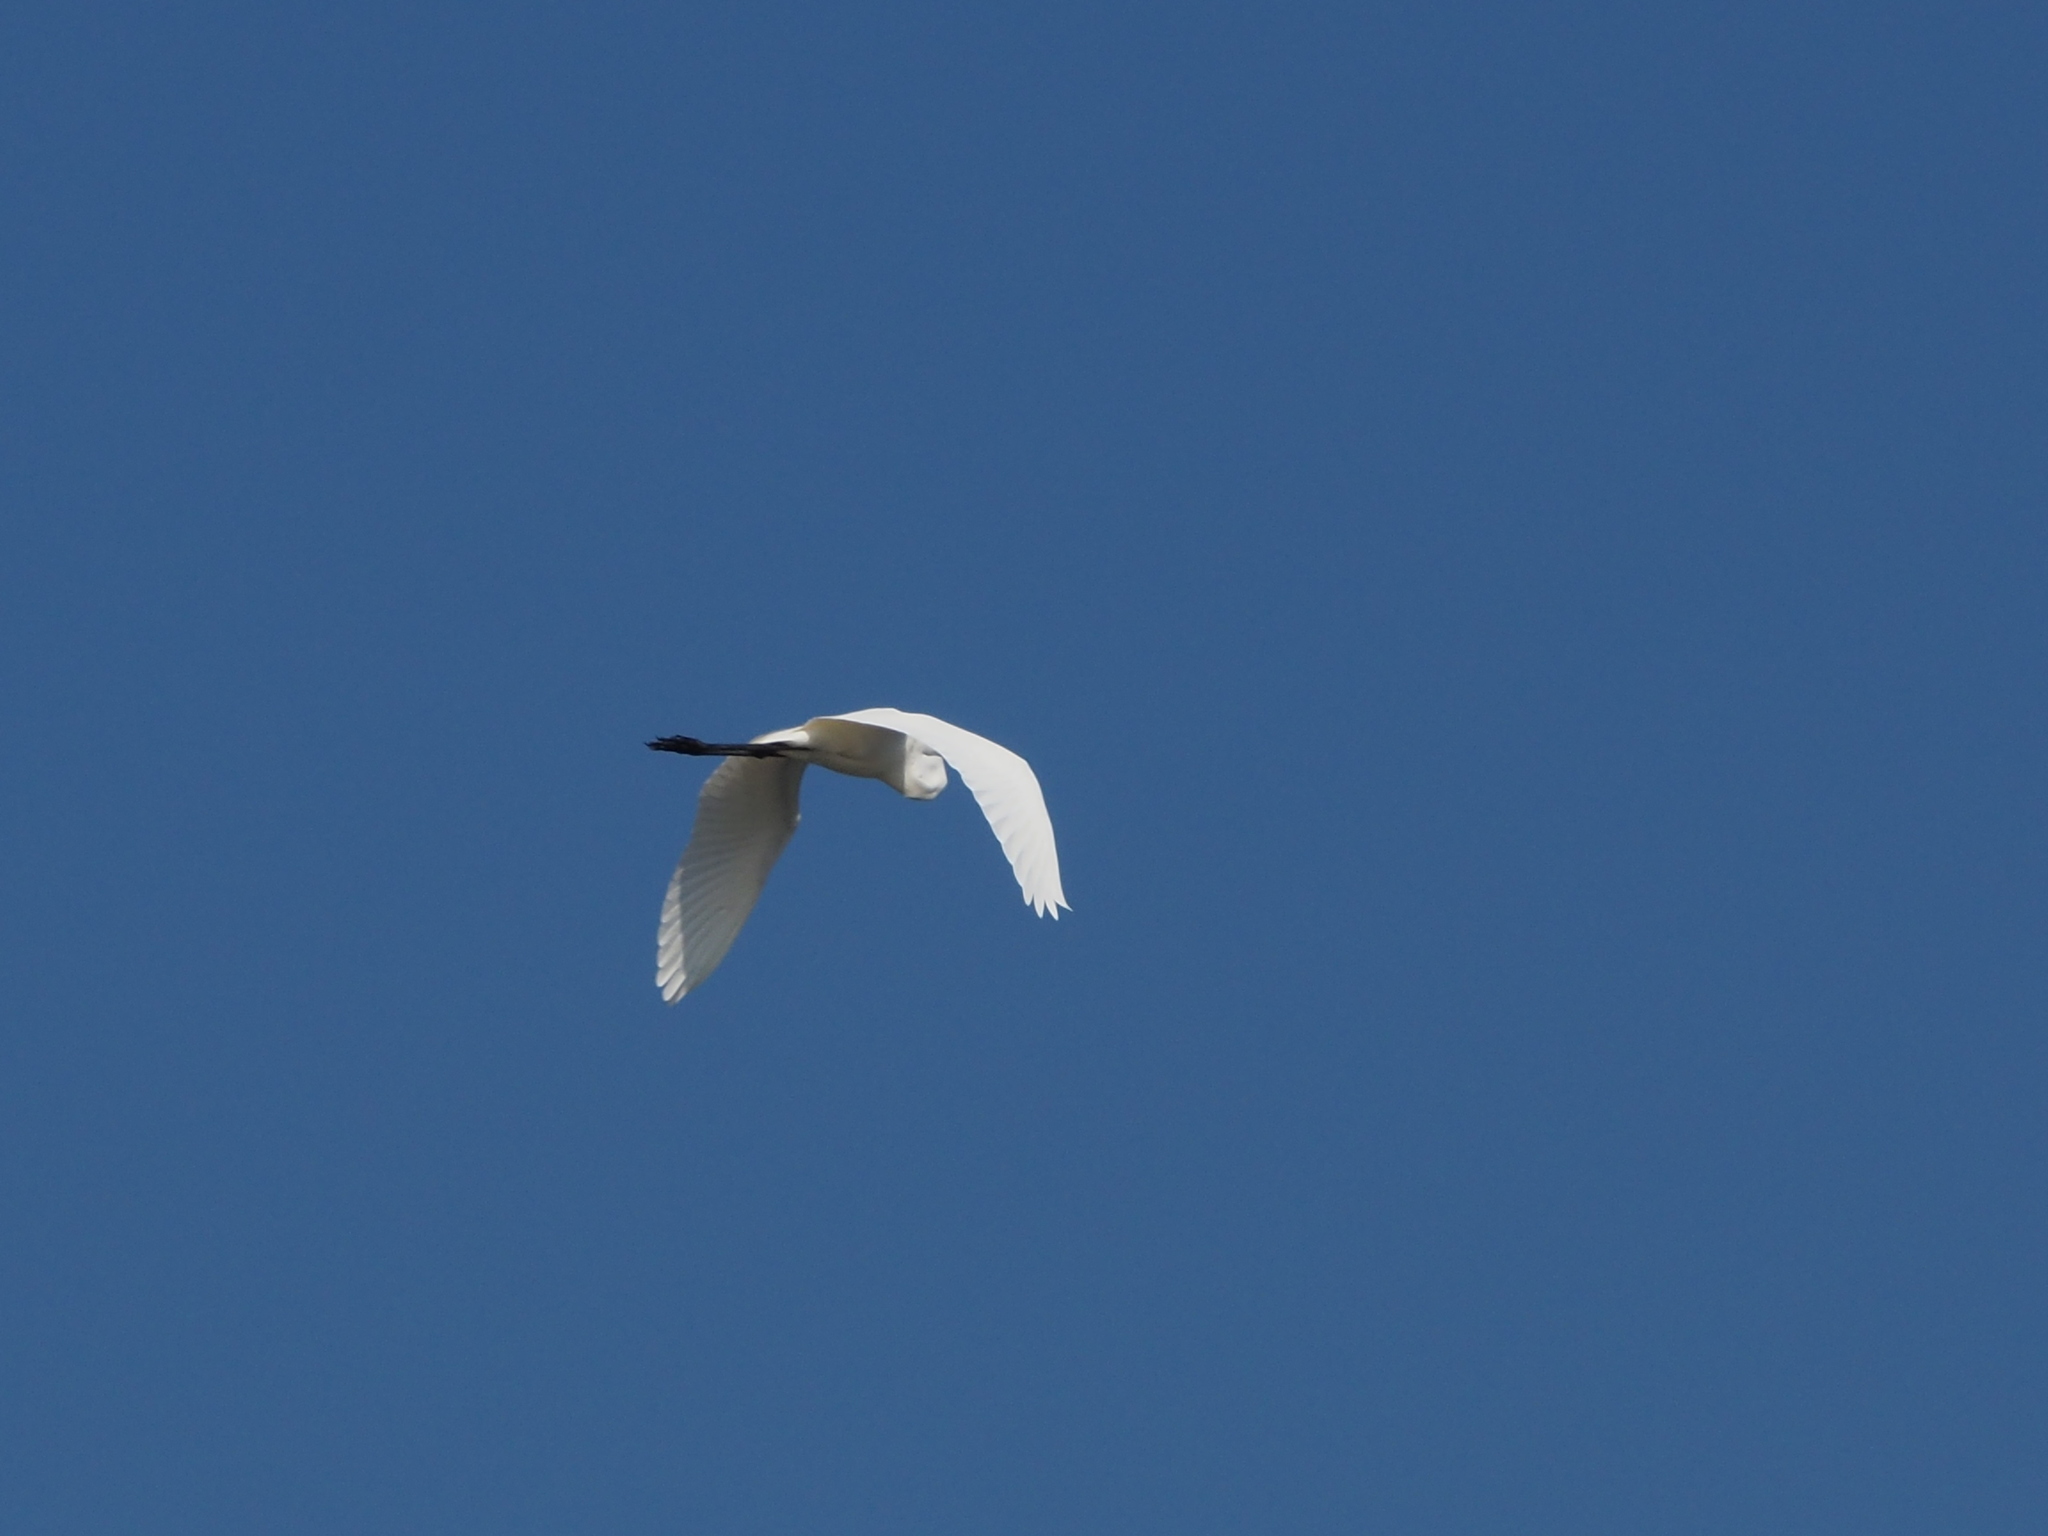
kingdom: Animalia
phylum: Chordata
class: Aves
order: Pelecaniformes
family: Ardeidae
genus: Ardea
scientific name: Ardea alba
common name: Great egret
